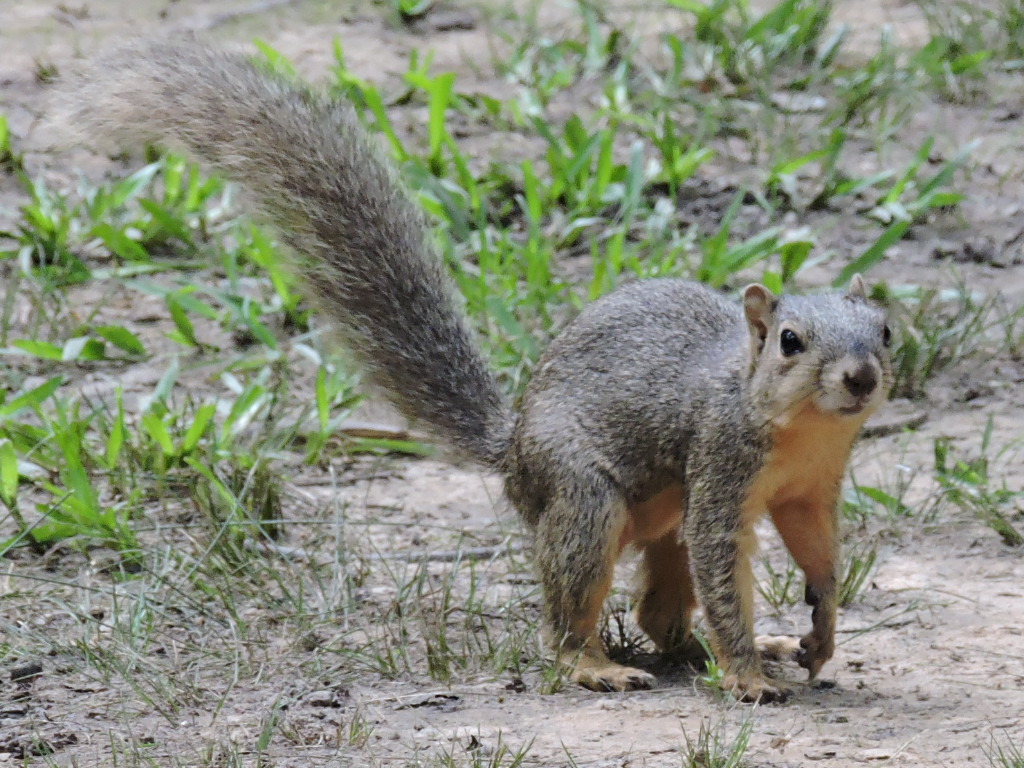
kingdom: Animalia
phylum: Chordata
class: Mammalia
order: Rodentia
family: Sciuridae
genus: Sciurus
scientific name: Sciurus niger
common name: Fox squirrel
